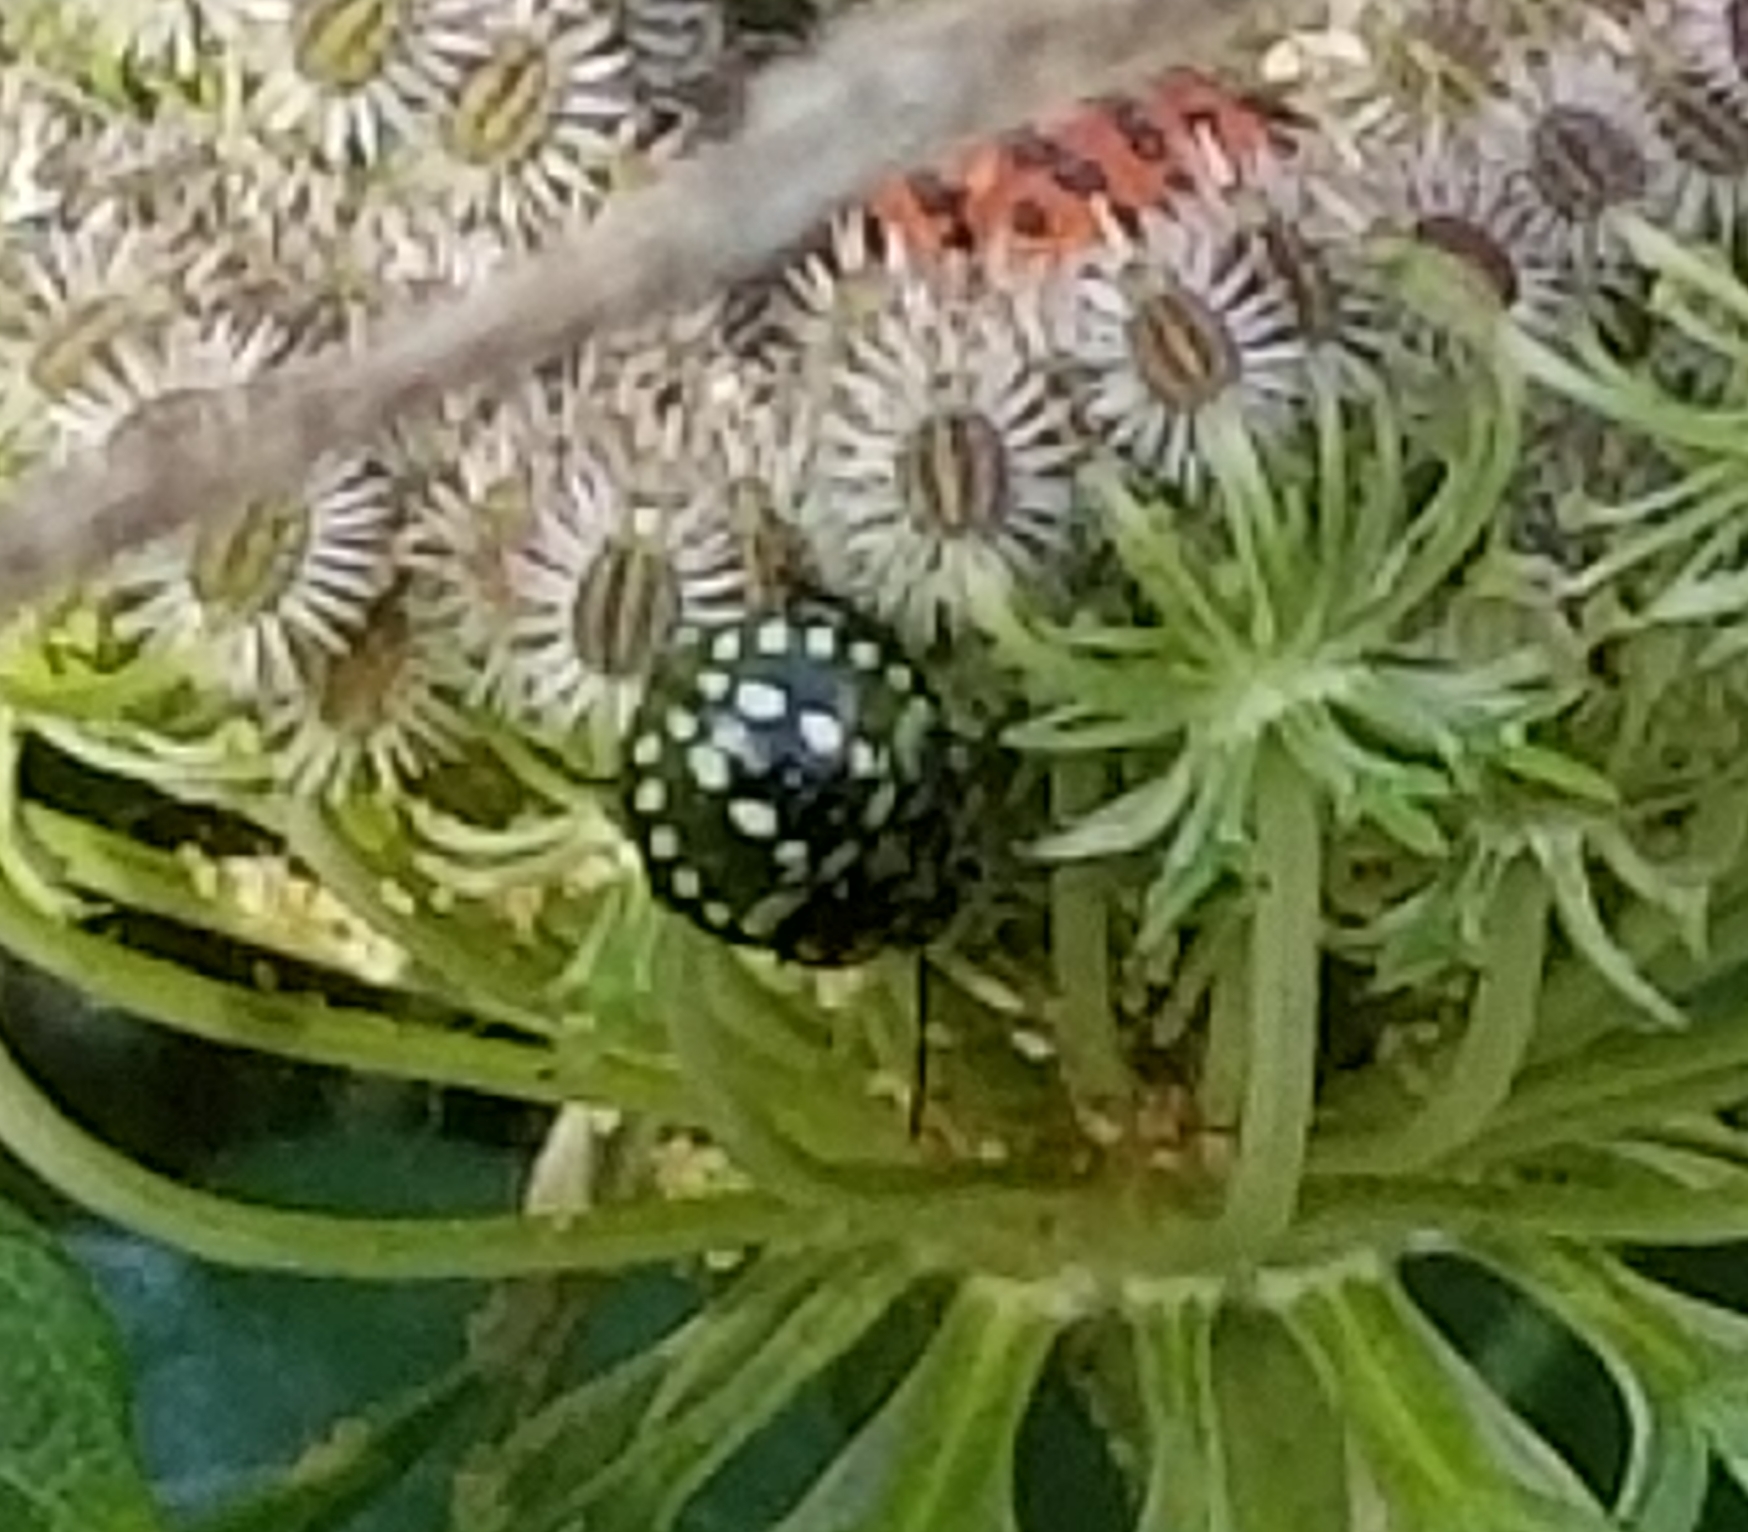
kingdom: Animalia
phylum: Arthropoda
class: Insecta
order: Hemiptera
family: Pentatomidae
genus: Nezara
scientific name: Nezara viridula
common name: Southern green stink bug
